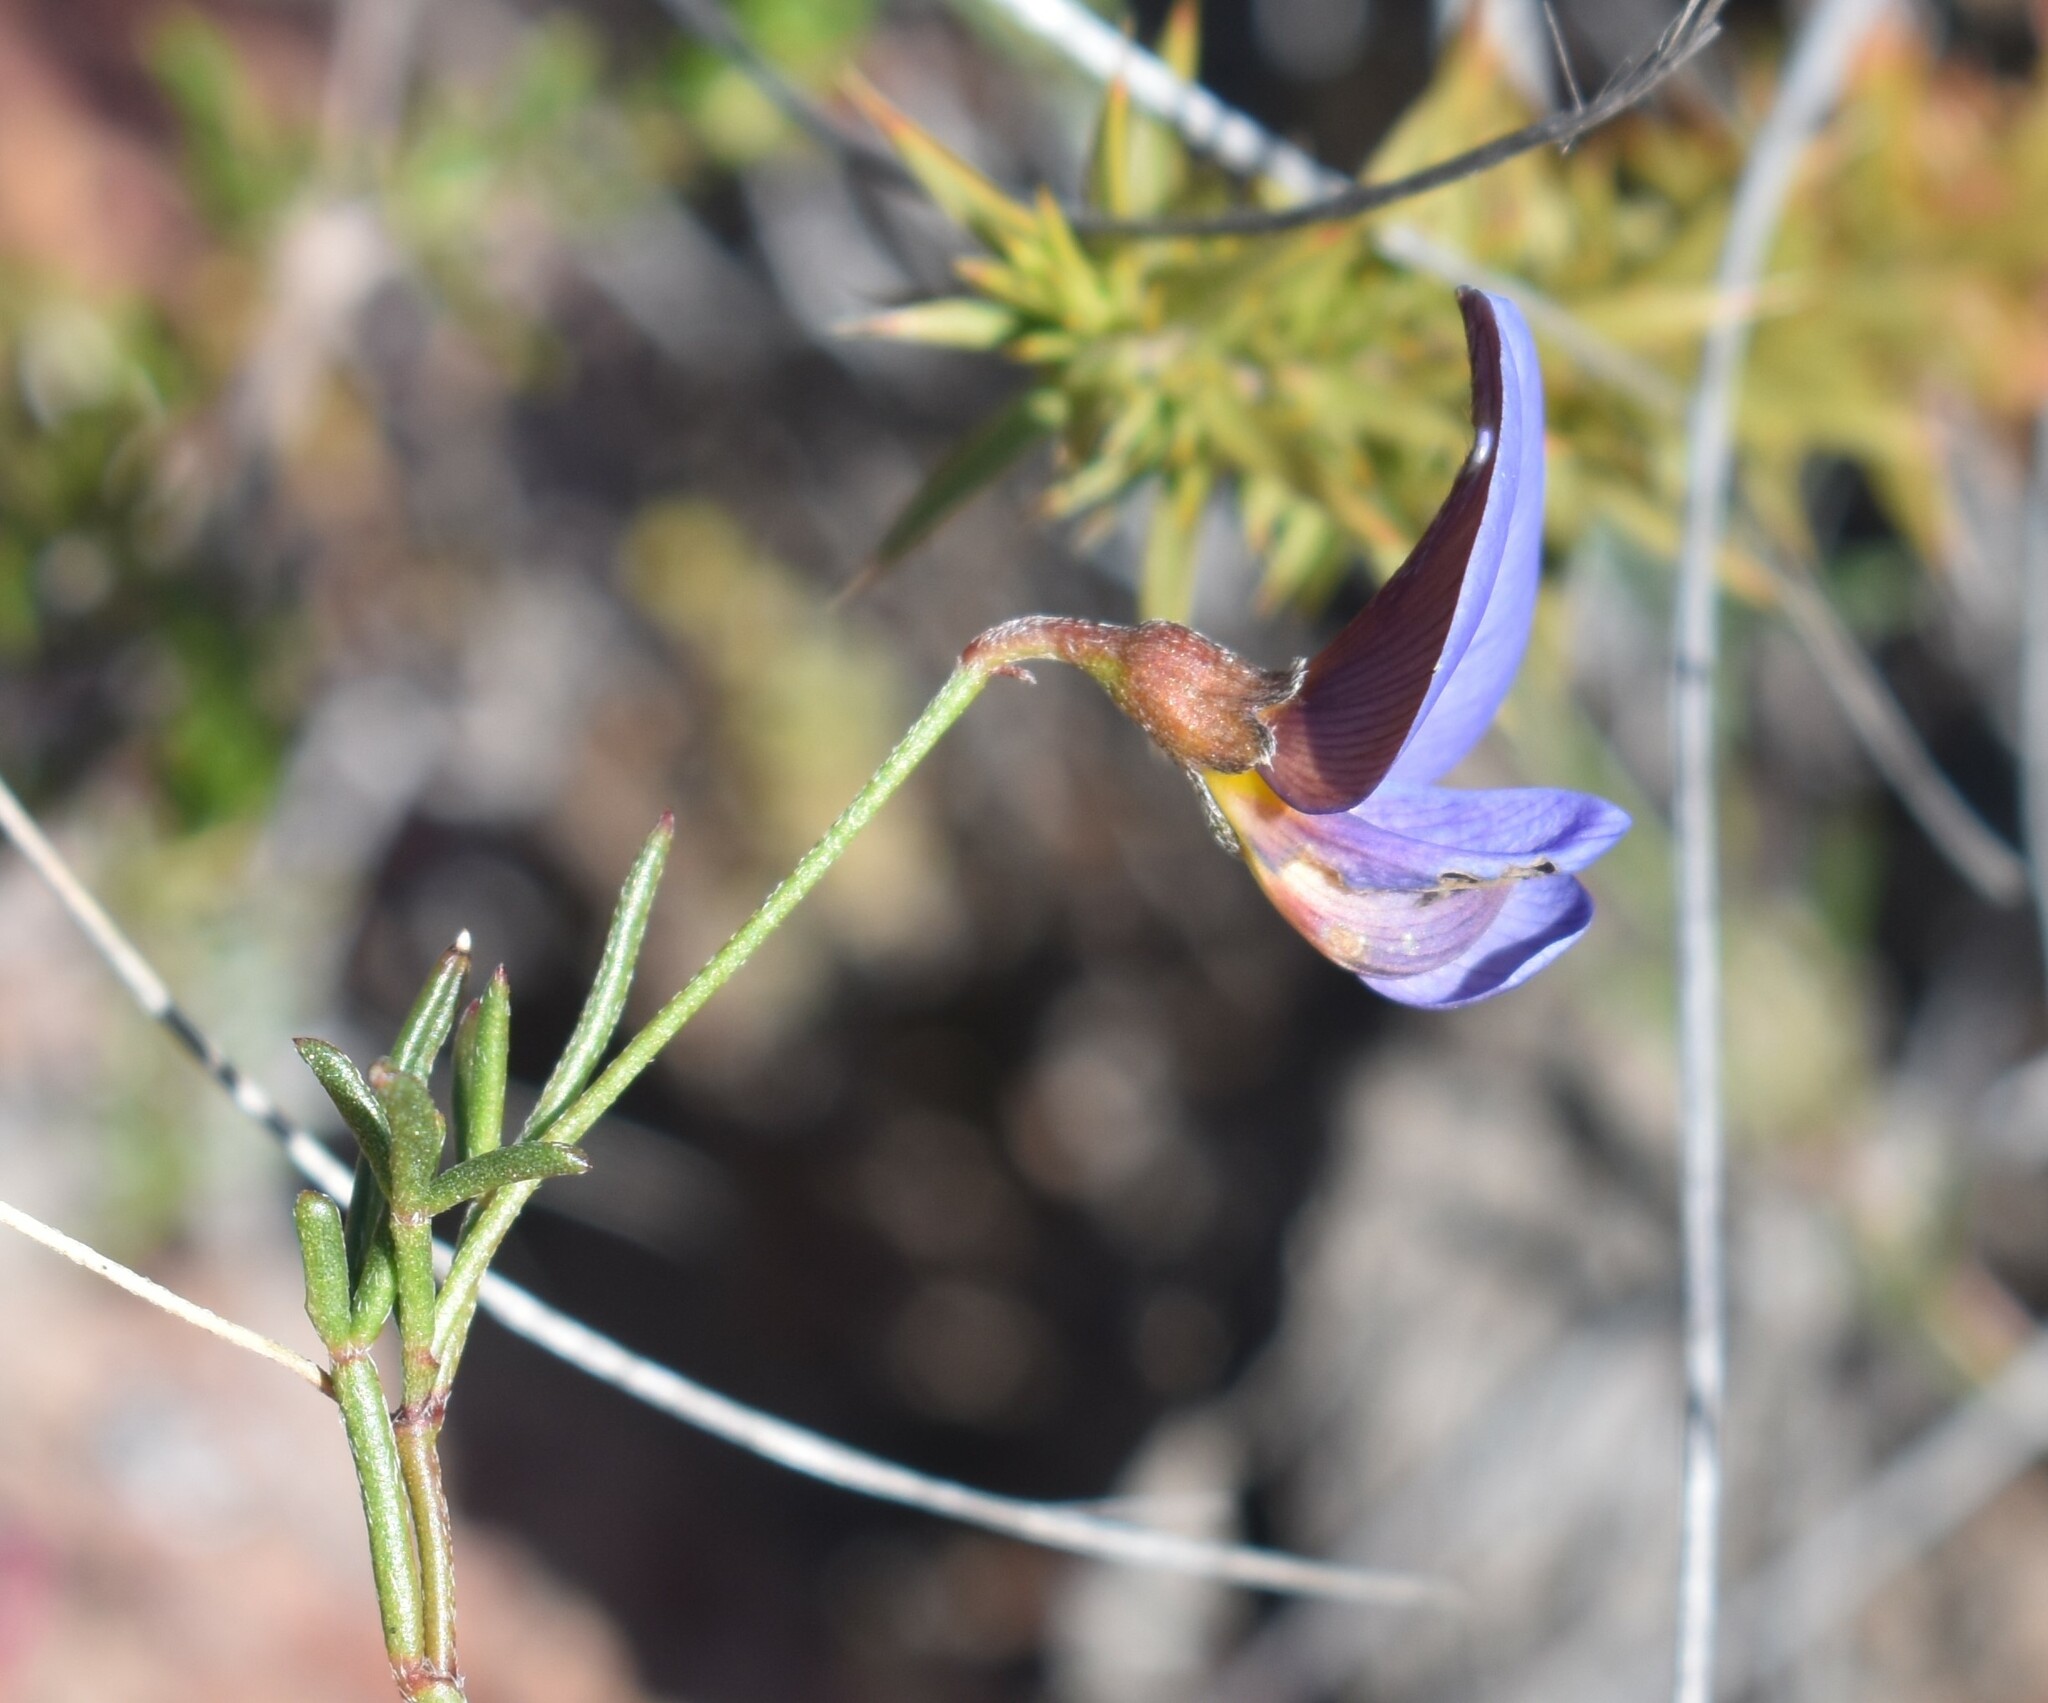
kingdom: Plantae
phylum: Tracheophyta
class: Magnoliopsida
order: Fabales
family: Fabaceae
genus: Lotononis
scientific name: Lotononis filiformis
